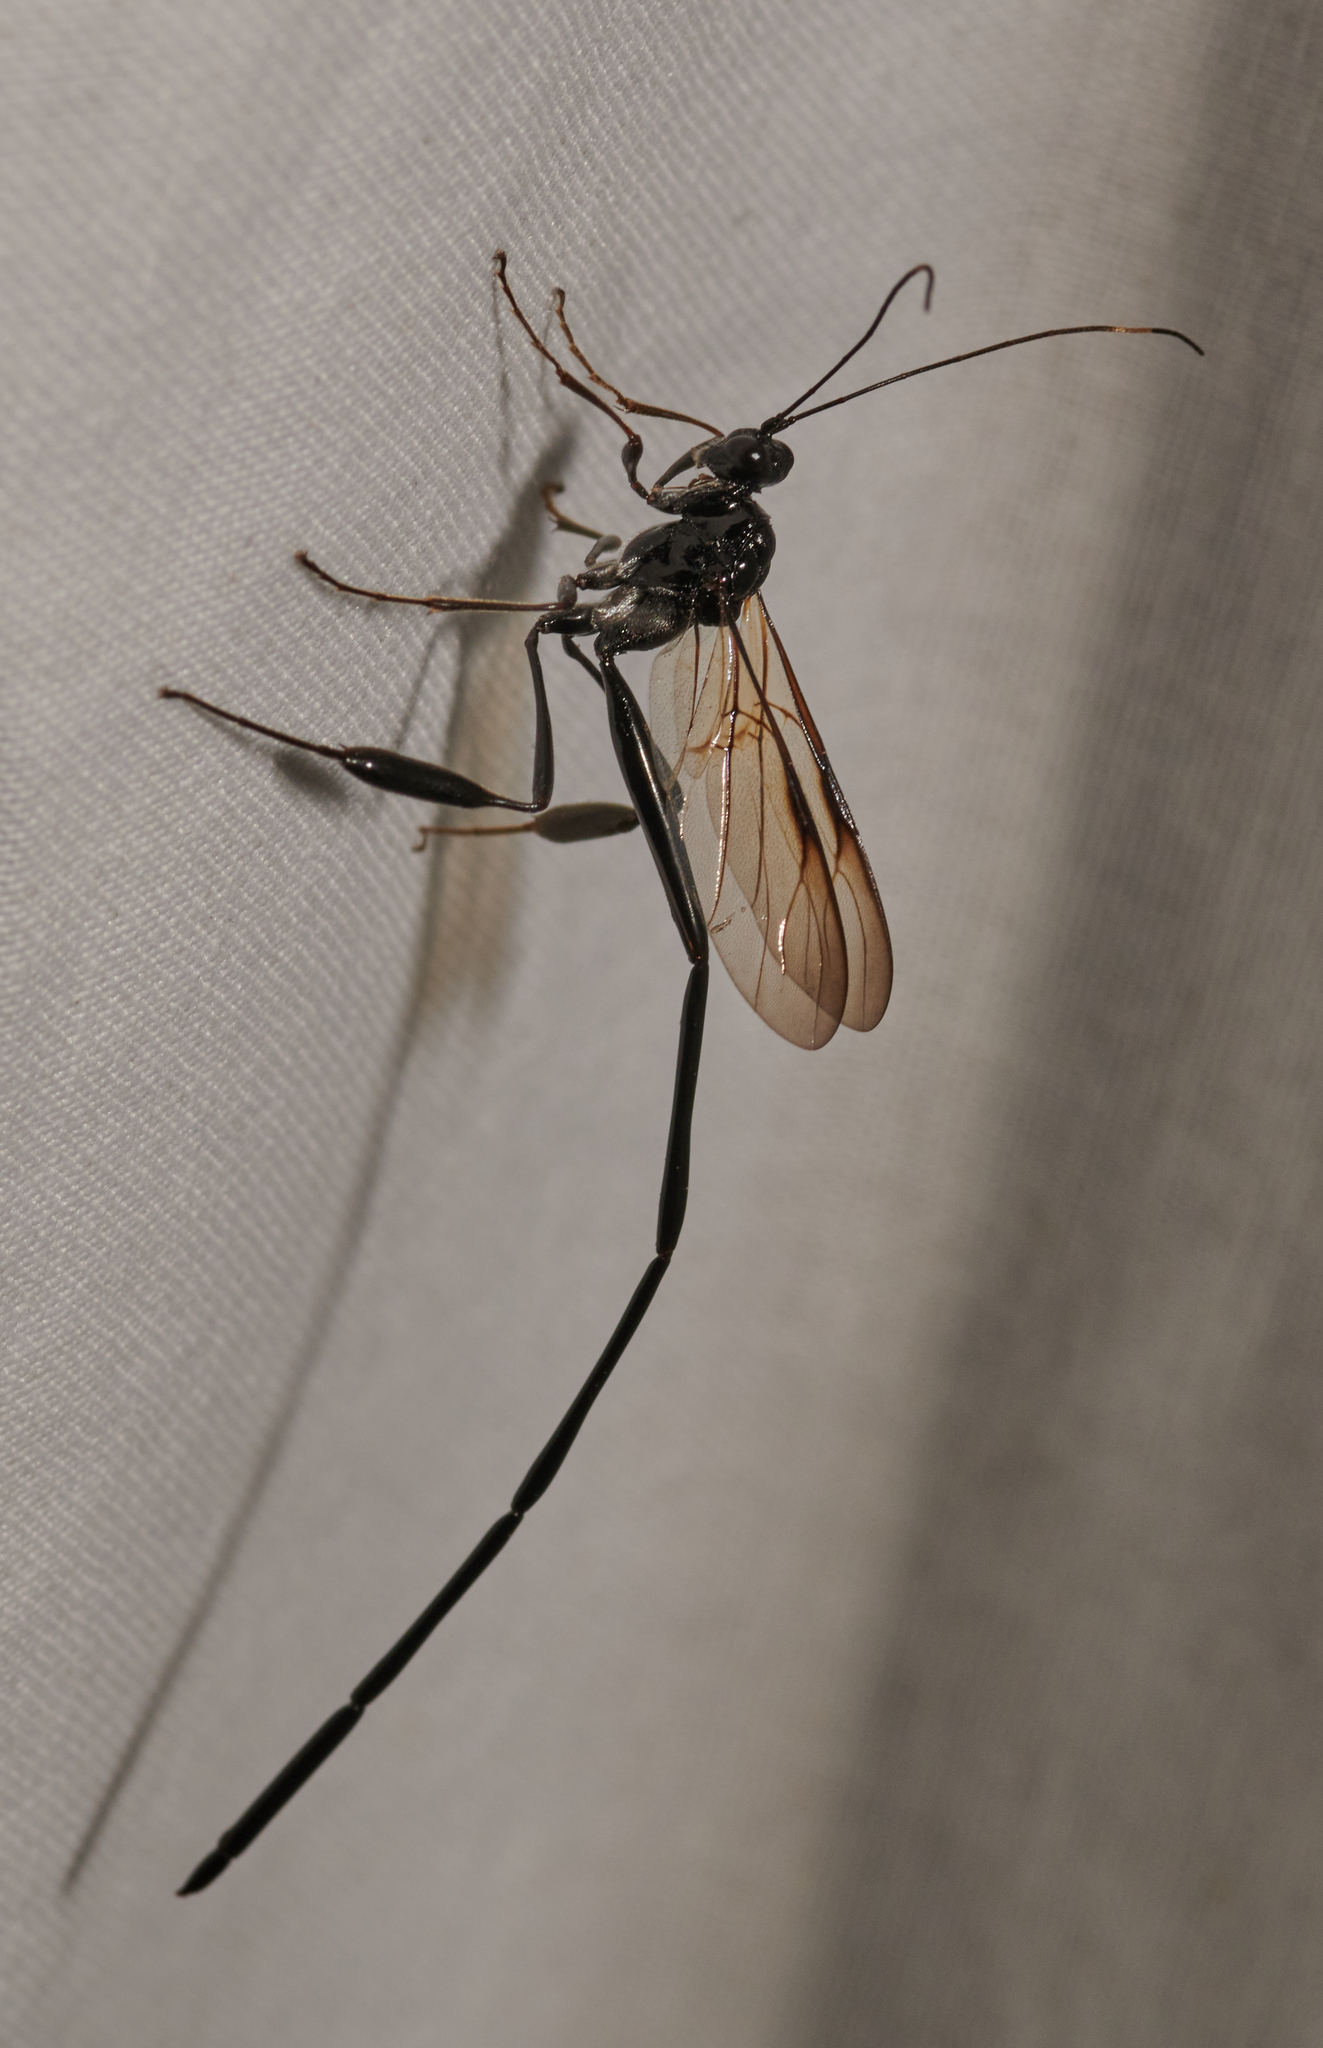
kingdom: Animalia
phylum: Arthropoda
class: Insecta
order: Hymenoptera
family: Pelecinidae
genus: Pelecinus
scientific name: Pelecinus polyturator
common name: American pelecinid wasp
